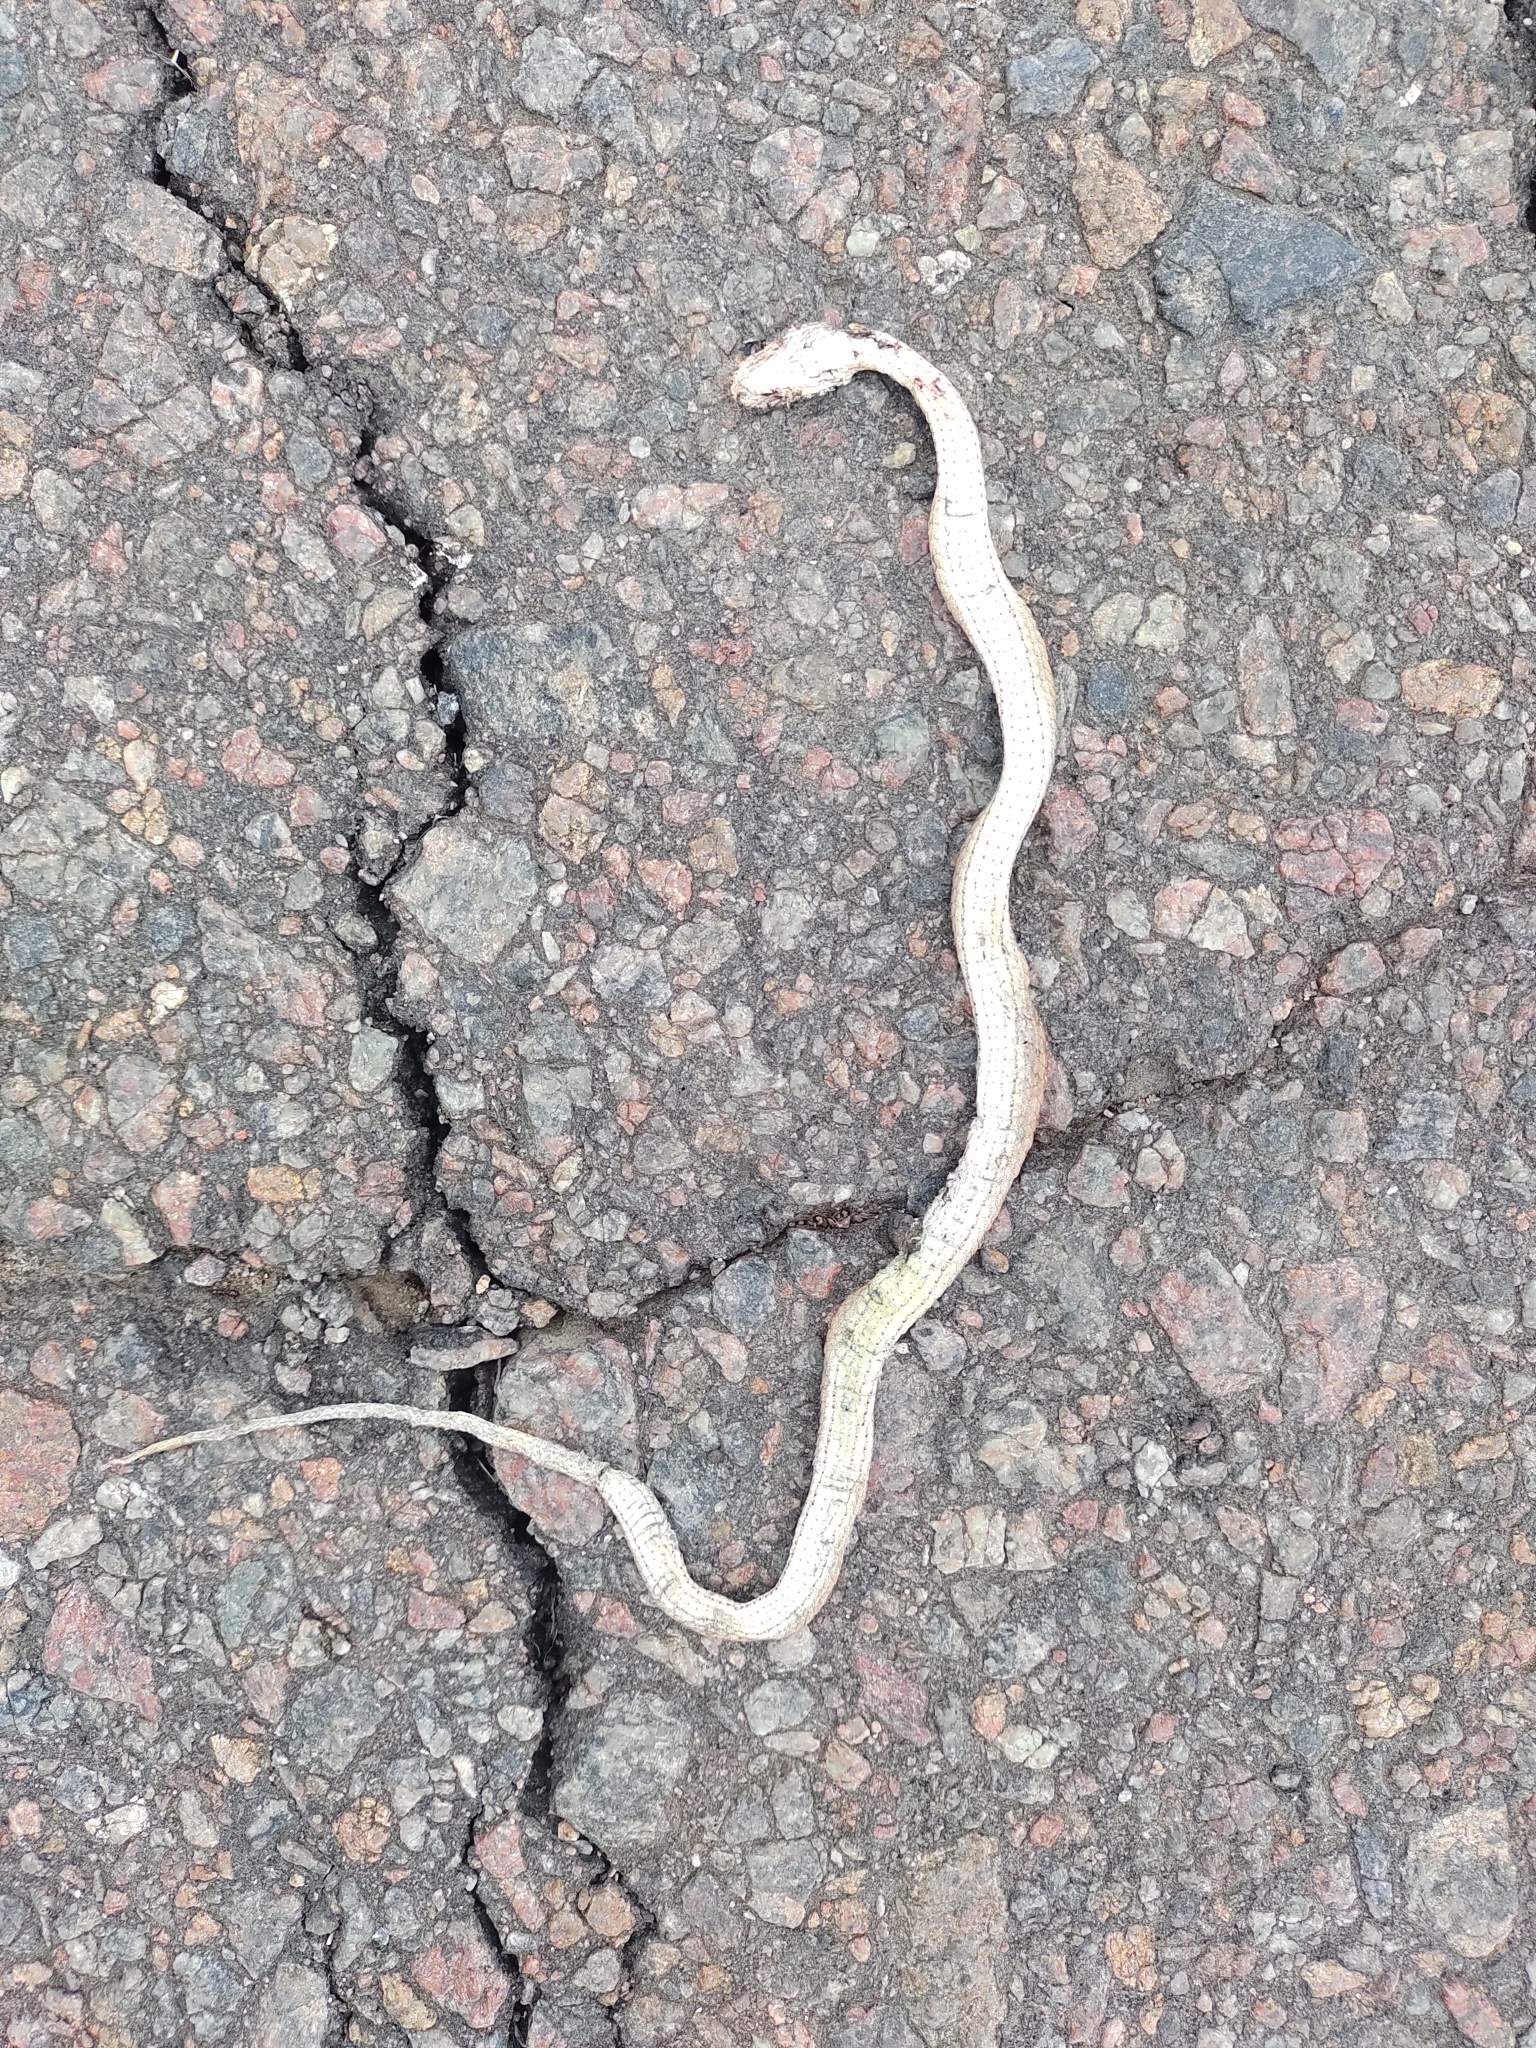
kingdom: Animalia
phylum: Chordata
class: Squamata
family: Colubridae
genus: Dryophylax
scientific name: Dryophylax
